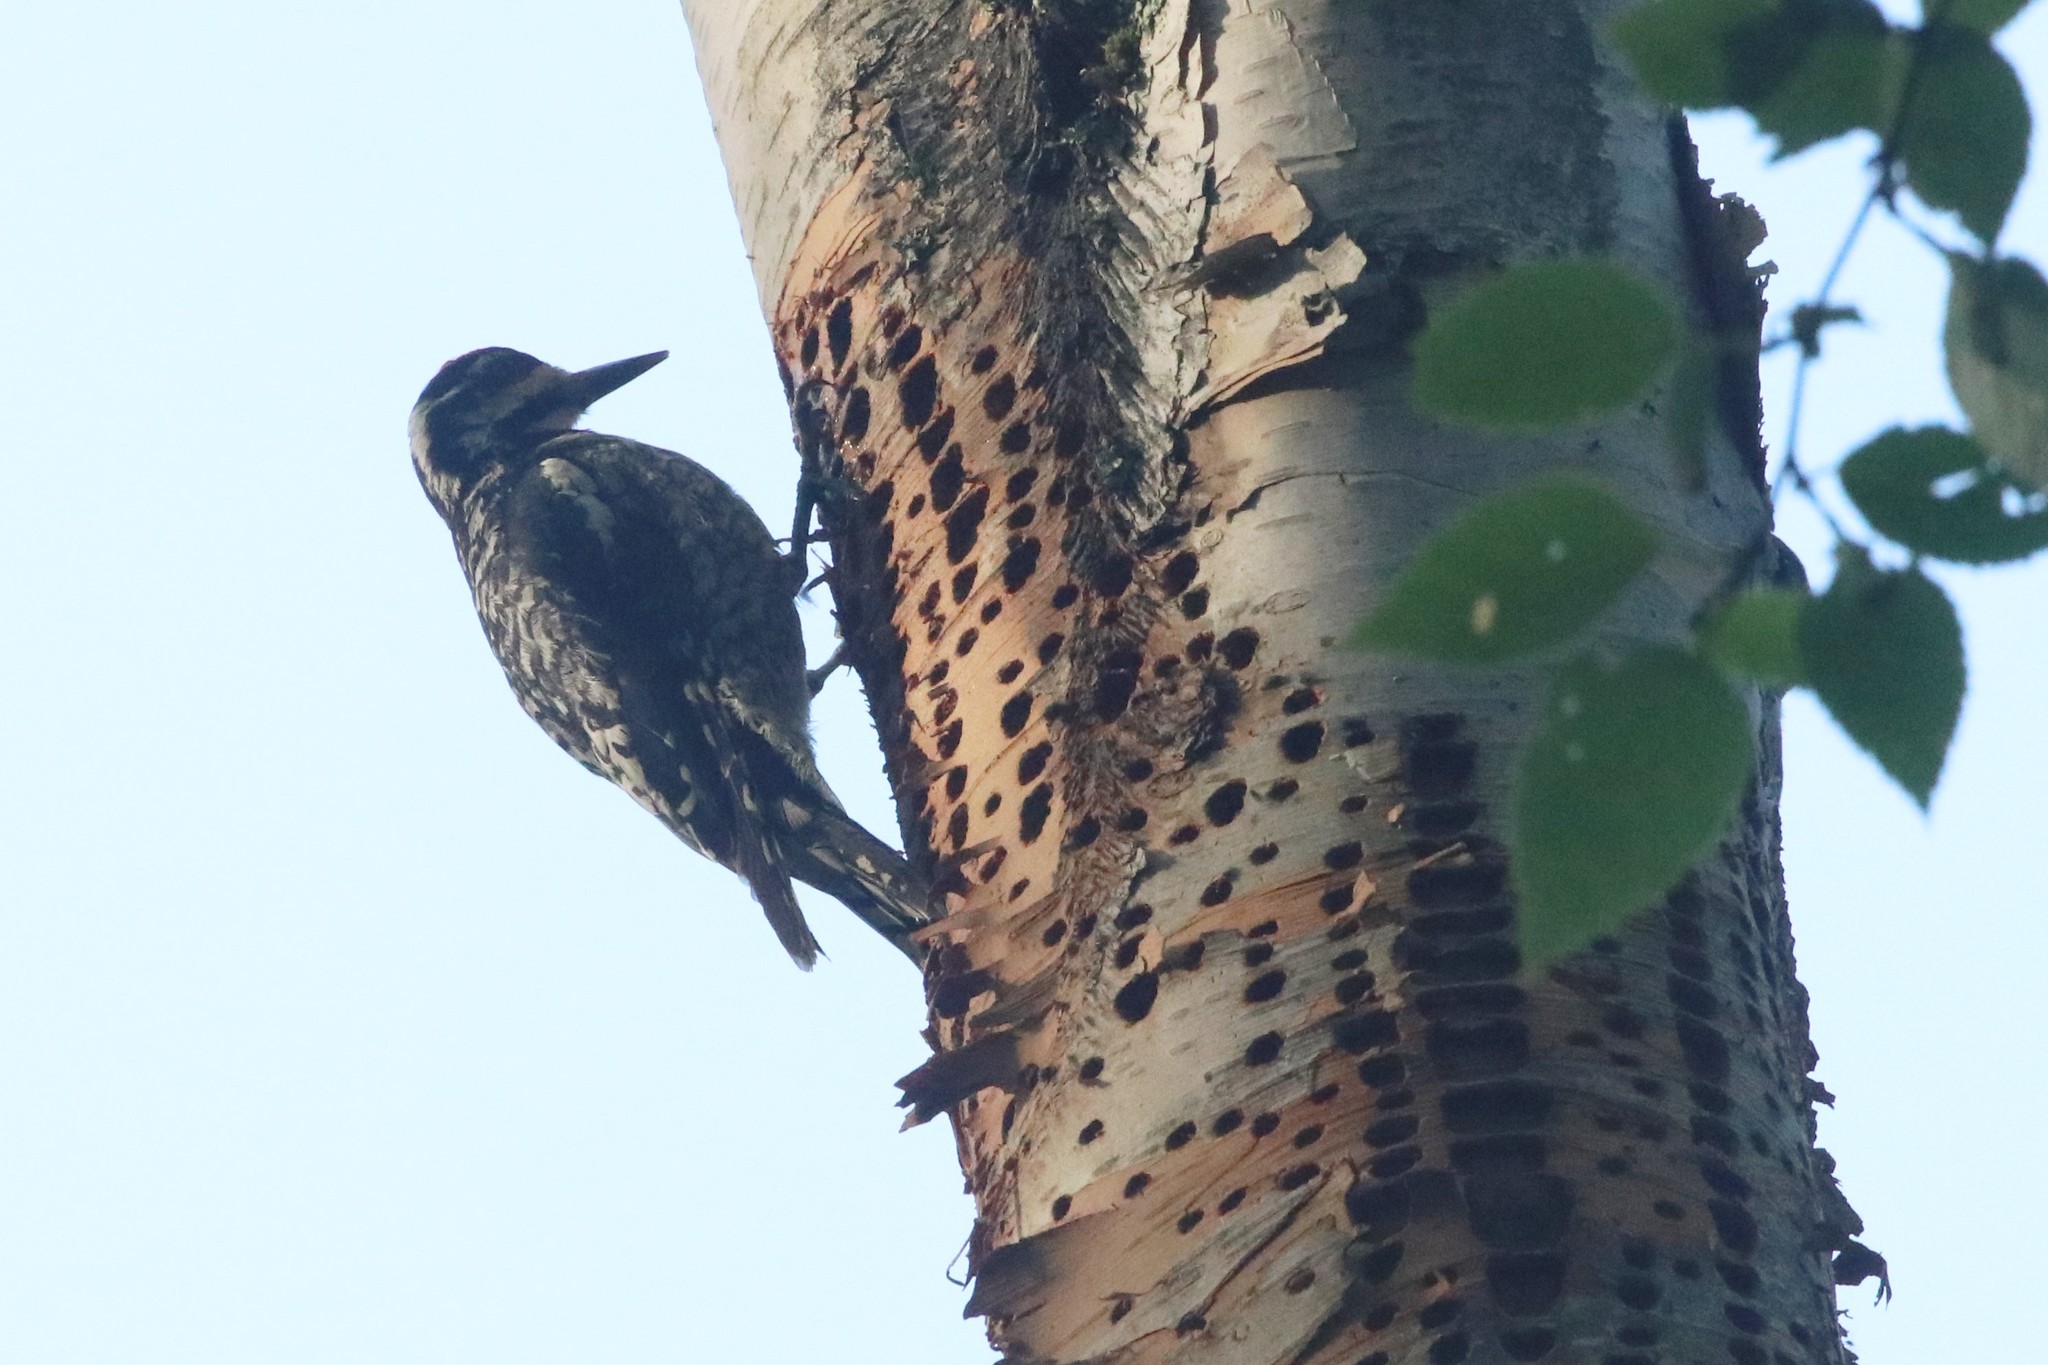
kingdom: Animalia
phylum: Chordata
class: Aves
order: Piciformes
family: Picidae
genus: Sphyrapicus
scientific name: Sphyrapicus varius
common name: Yellow-bellied sapsucker
